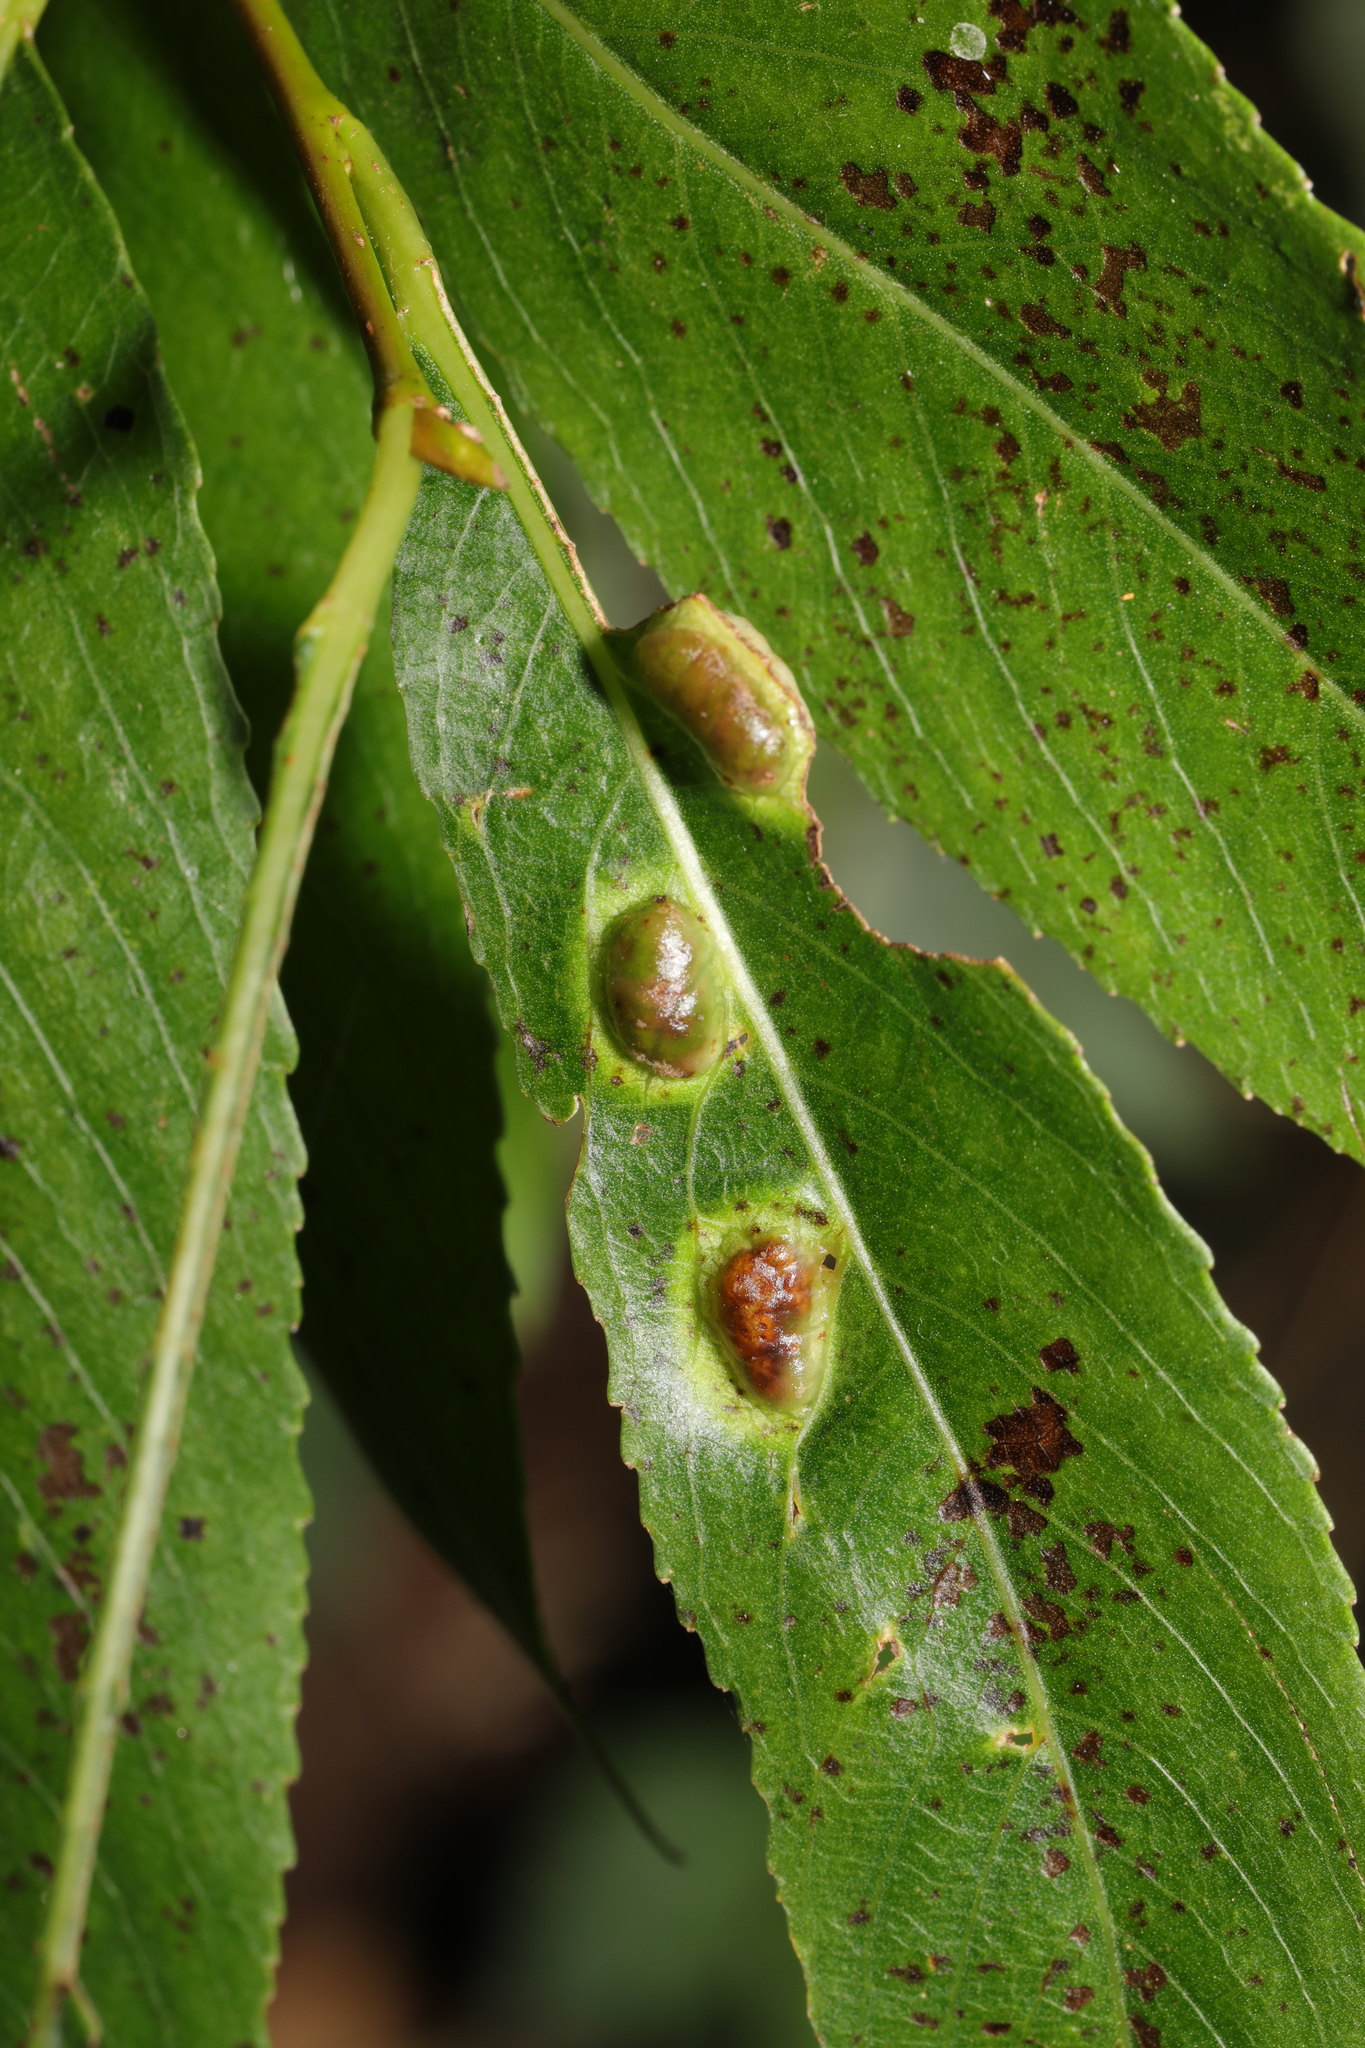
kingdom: Animalia
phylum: Arthropoda
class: Insecta
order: Hymenoptera
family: Tenthredinidae
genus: Pontania
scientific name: Pontania proxima
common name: Common sawfly
